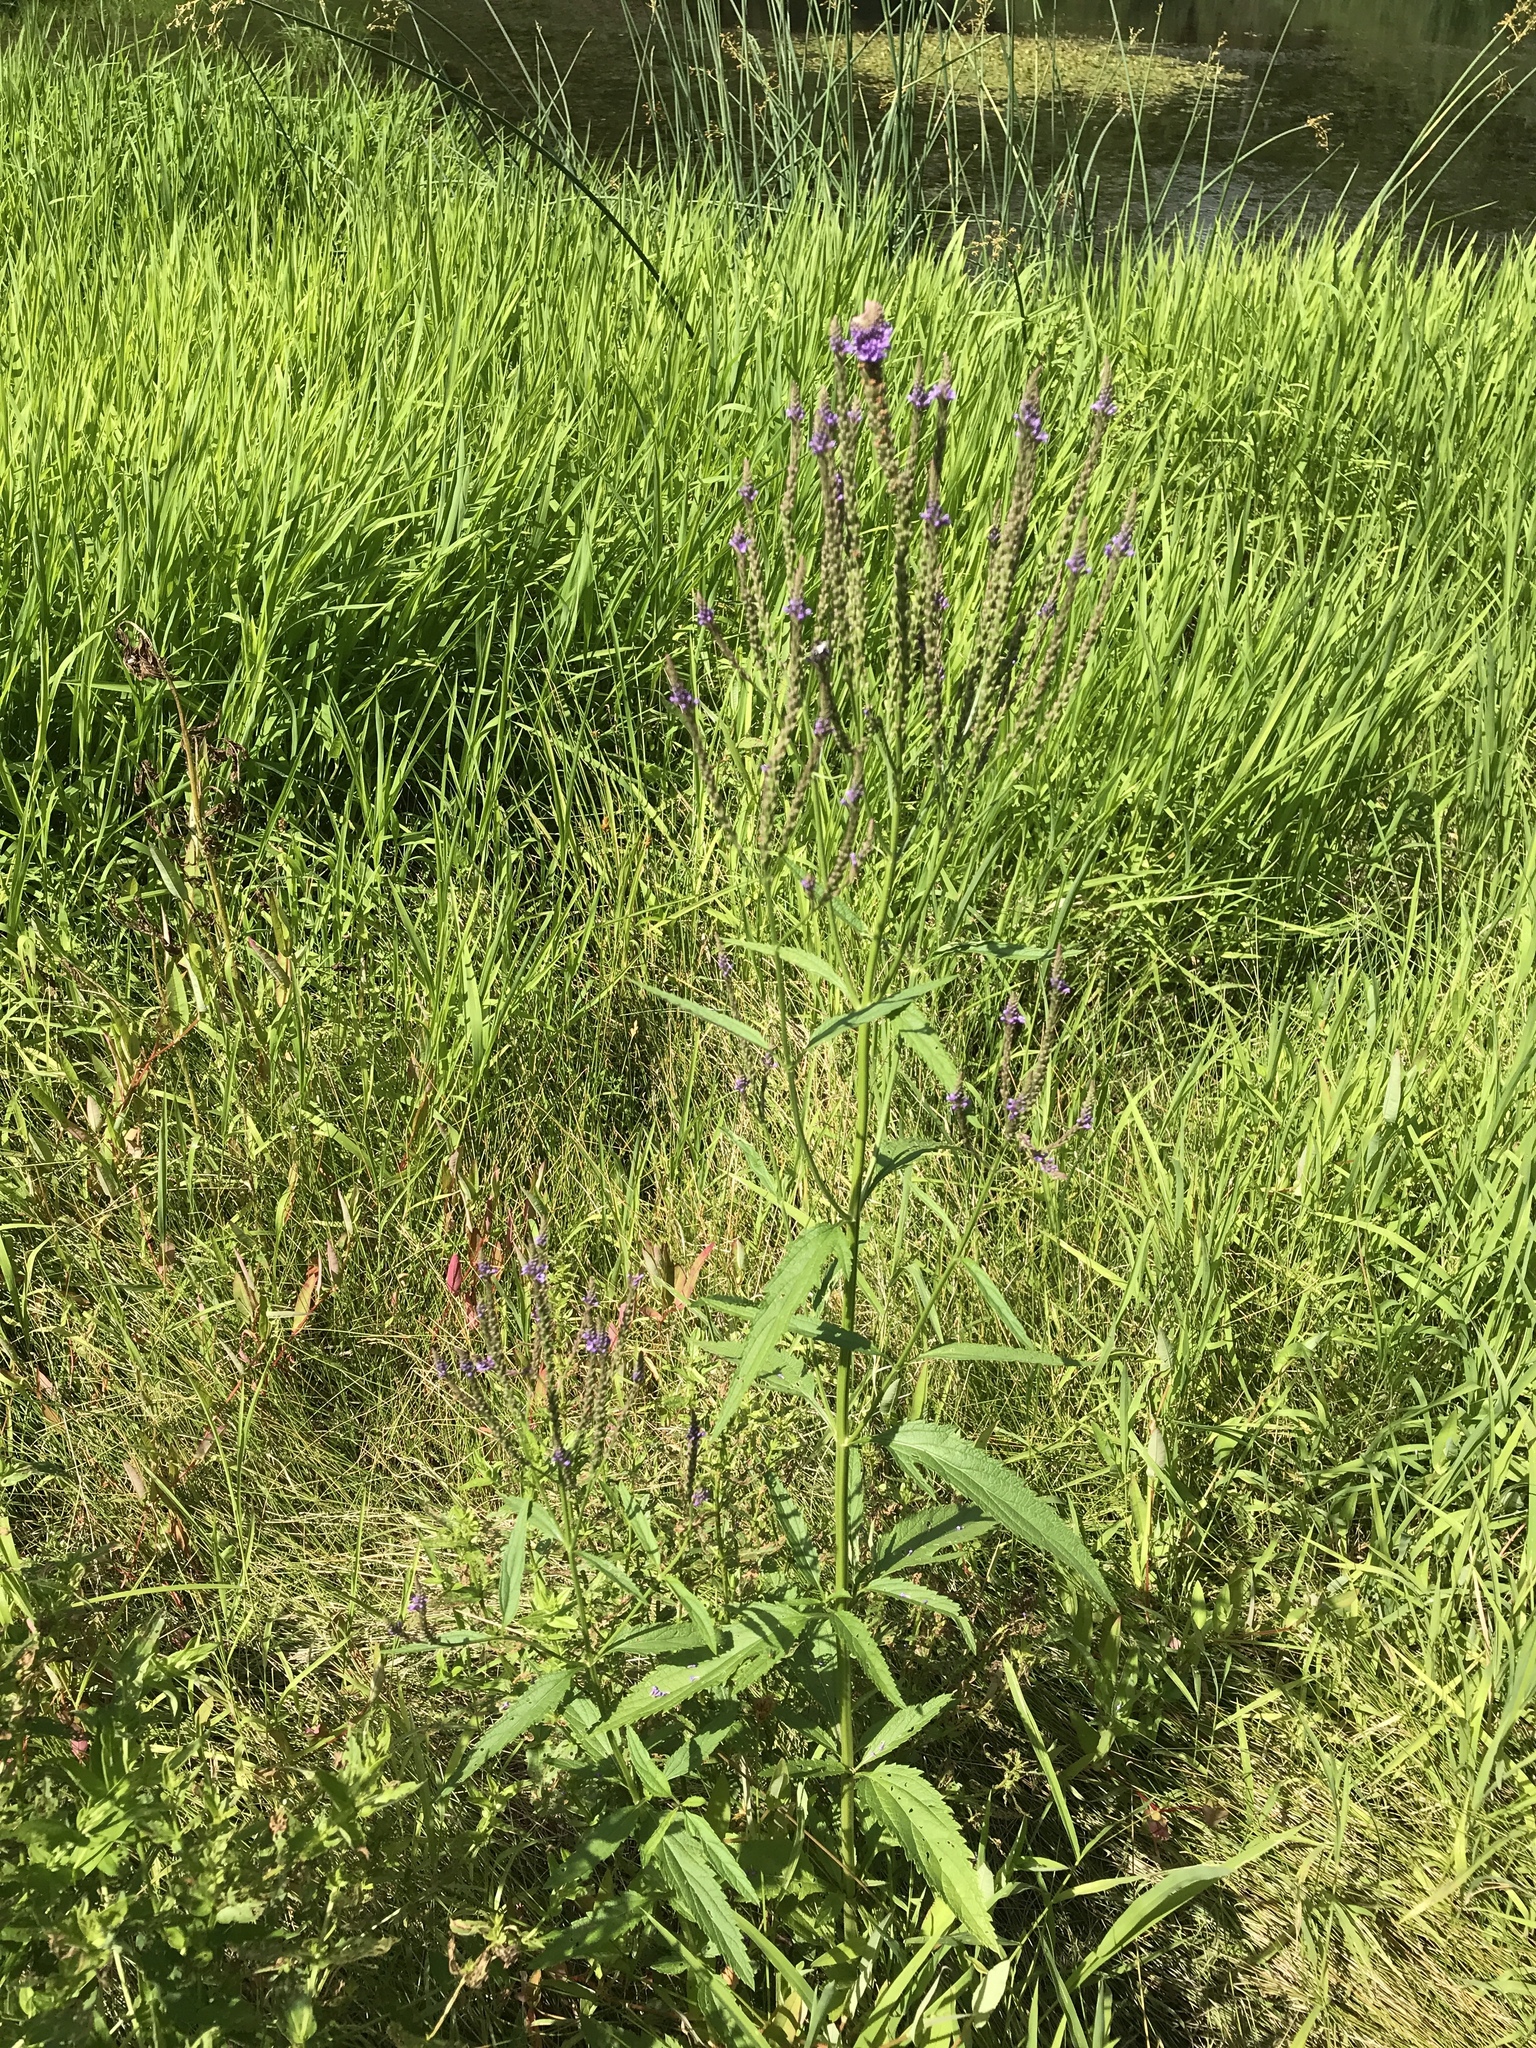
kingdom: Plantae
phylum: Tracheophyta
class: Magnoliopsida
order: Lamiales
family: Verbenaceae
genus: Verbena
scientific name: Verbena hastata
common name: American blue vervain
